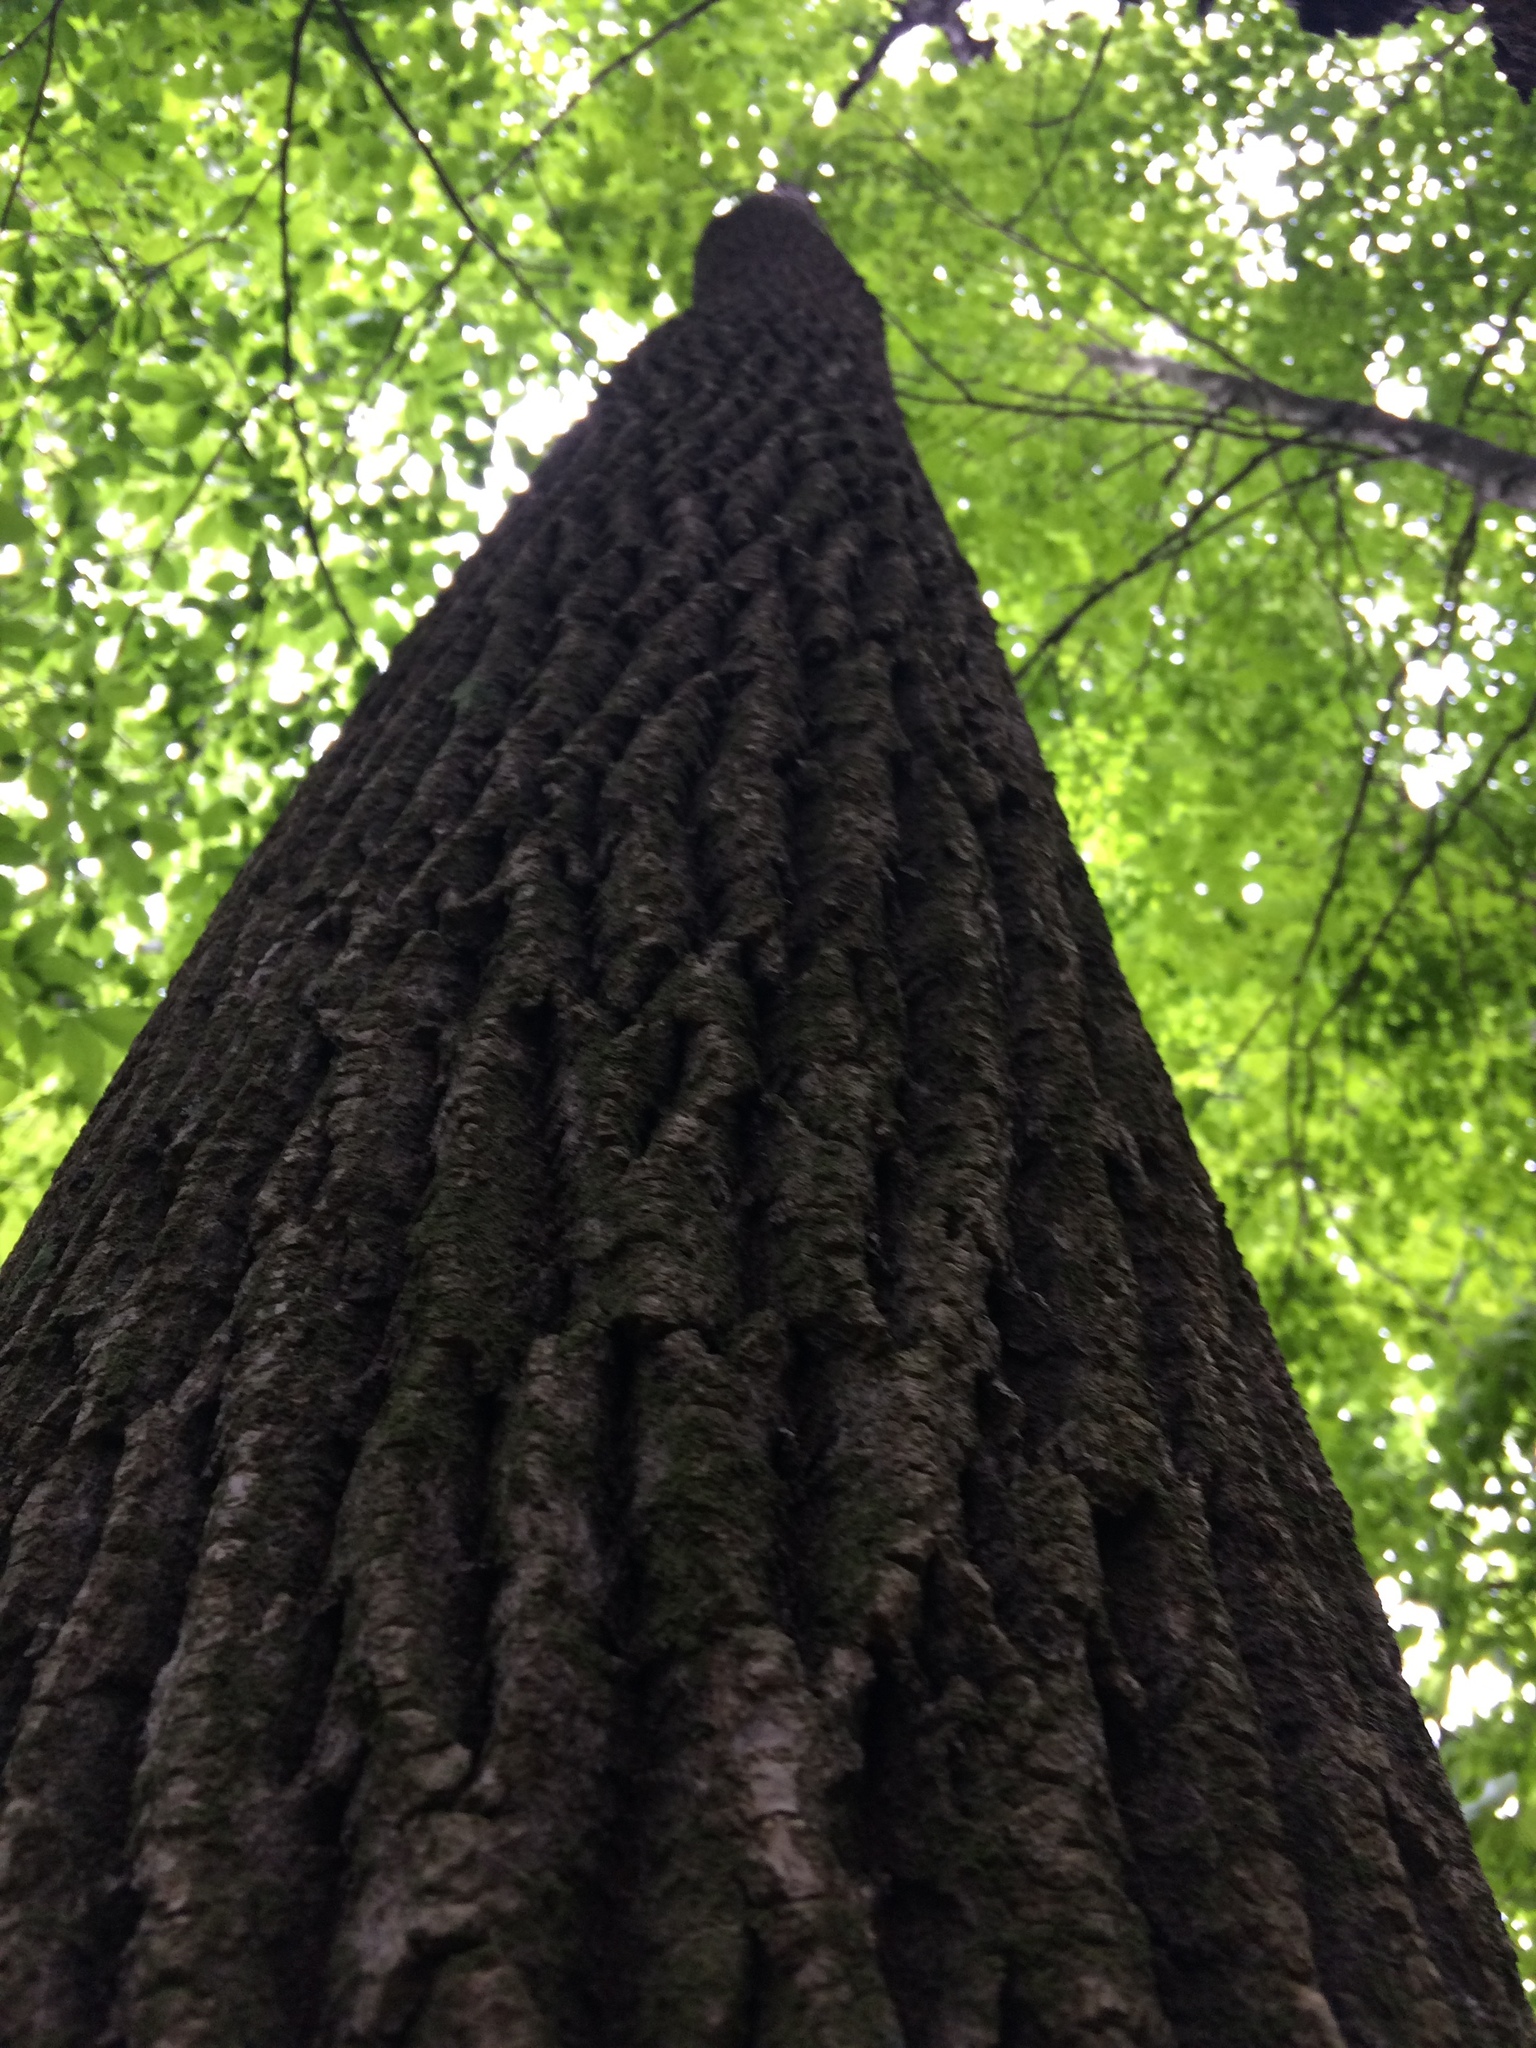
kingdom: Plantae
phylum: Tracheophyta
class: Magnoliopsida
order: Lamiales
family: Oleaceae
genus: Fraxinus
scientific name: Fraxinus americana
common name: White ash
